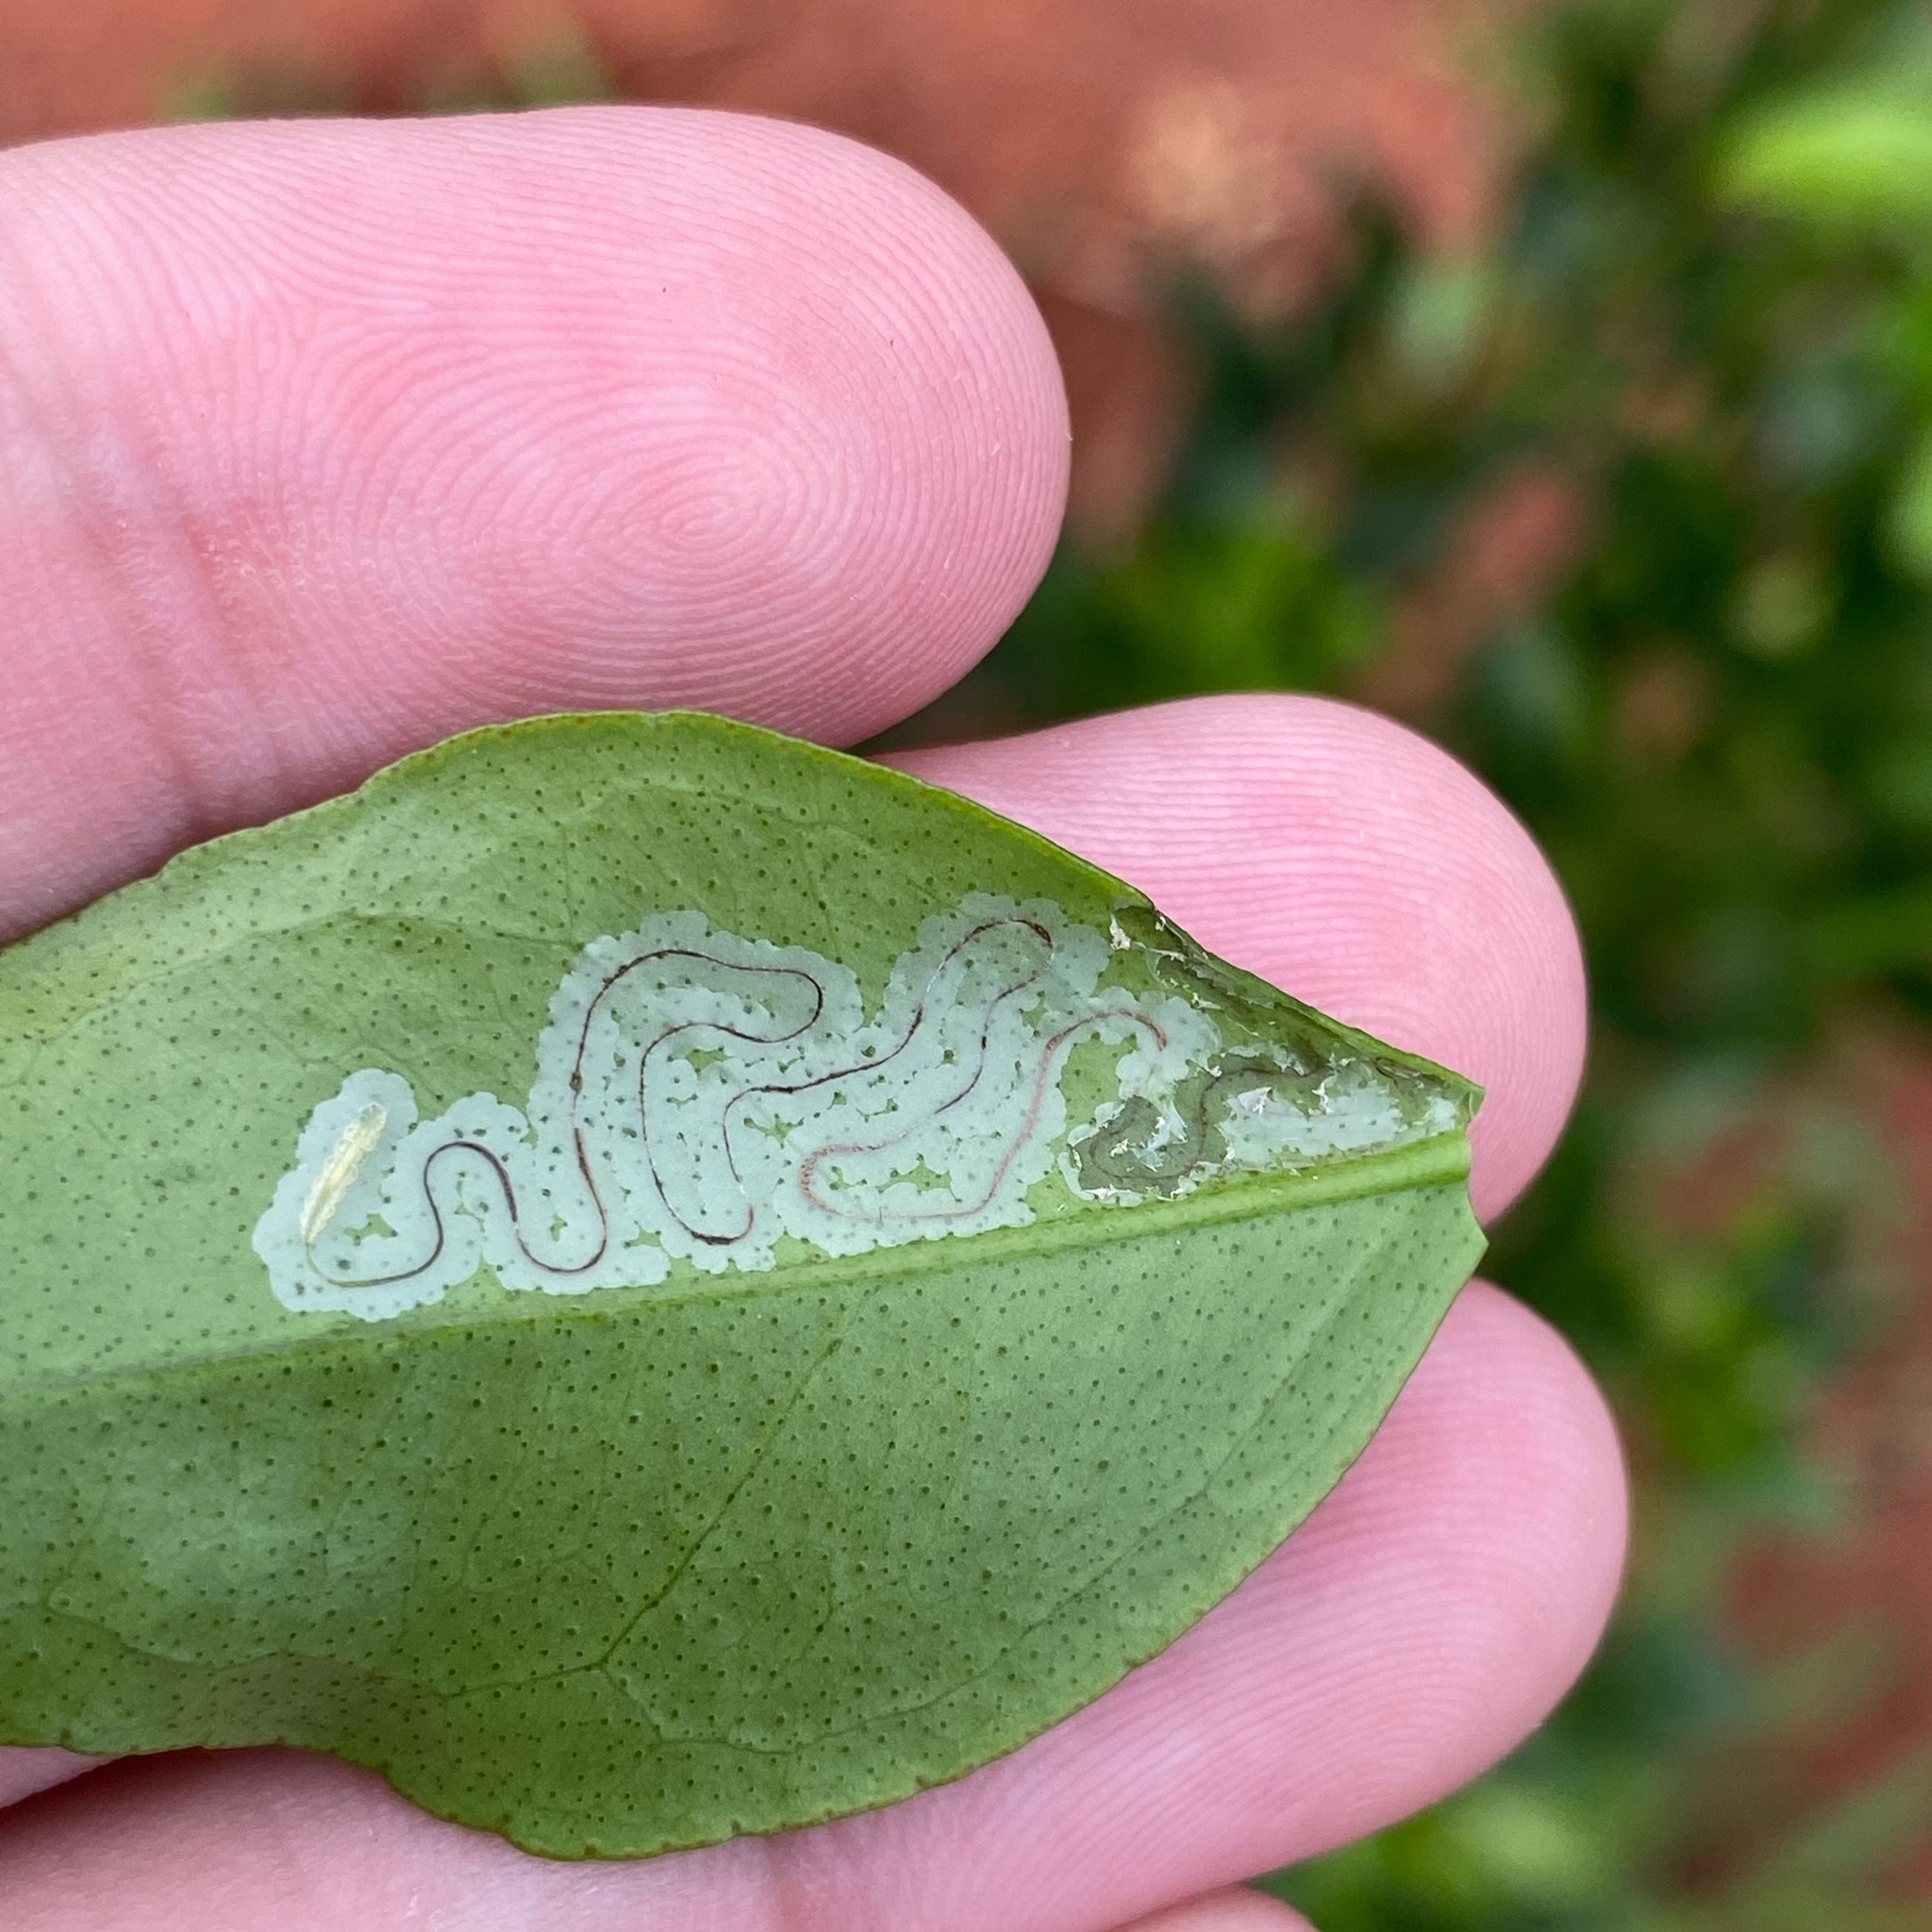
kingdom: Animalia
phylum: Arthropoda
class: Insecta
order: Lepidoptera
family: Gracillariidae
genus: Phyllocnistis
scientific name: Phyllocnistis citrella
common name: Citrus leafminer
